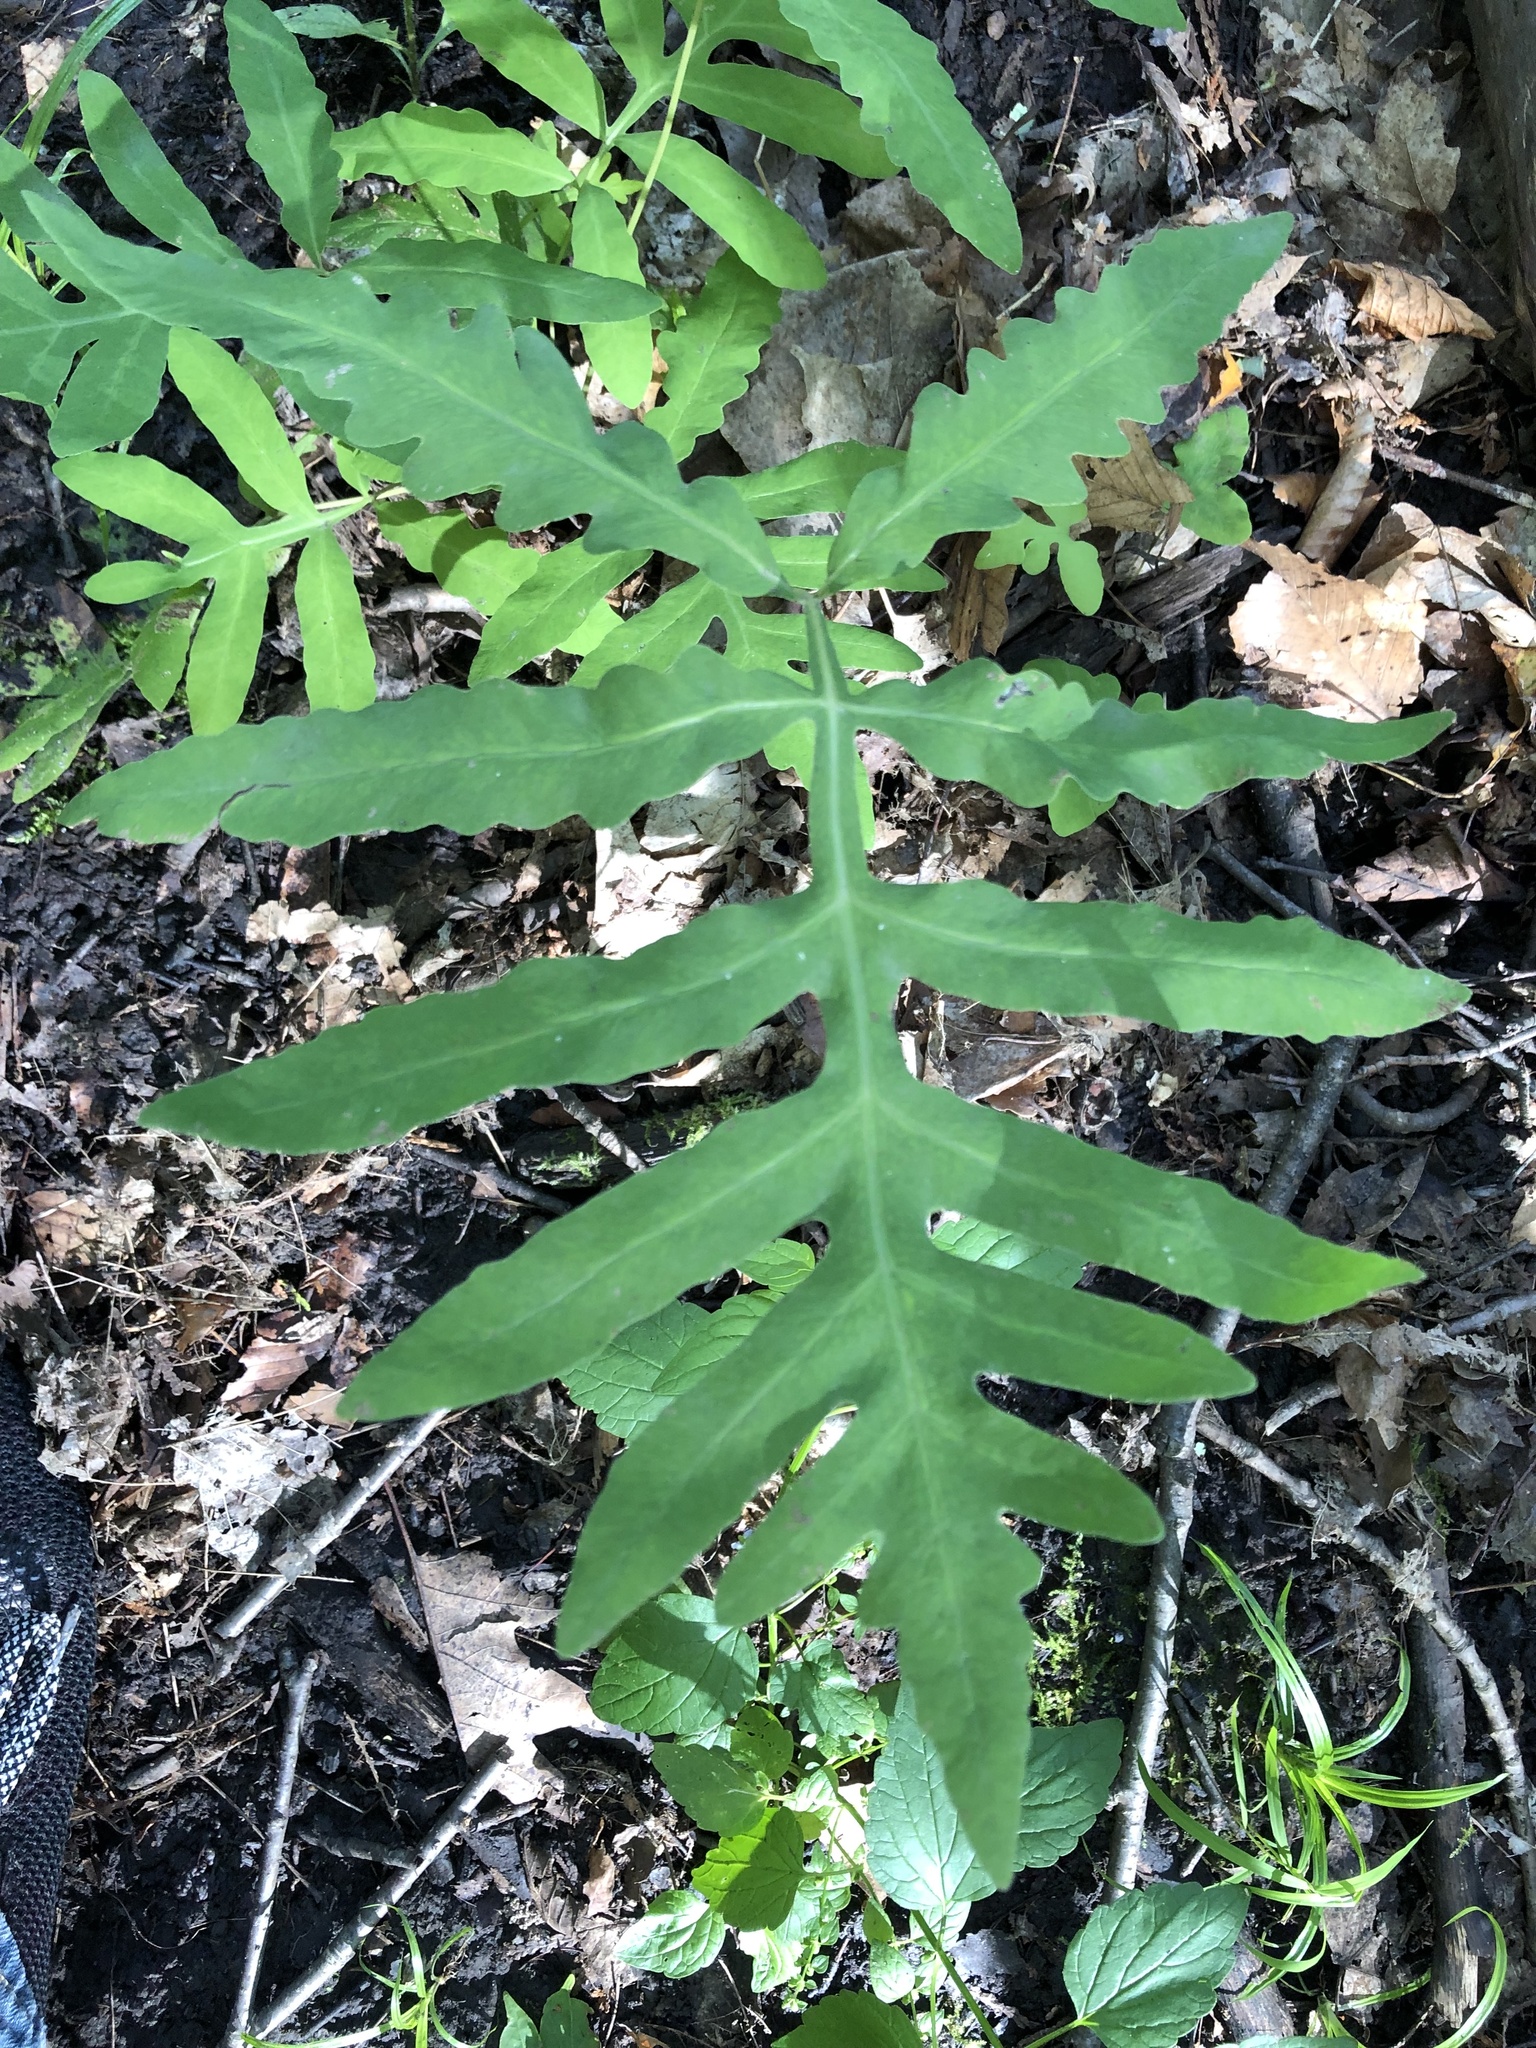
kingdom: Plantae
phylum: Tracheophyta
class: Polypodiopsida
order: Polypodiales
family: Onocleaceae
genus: Onoclea
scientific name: Onoclea sensibilis
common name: Sensitive fern
